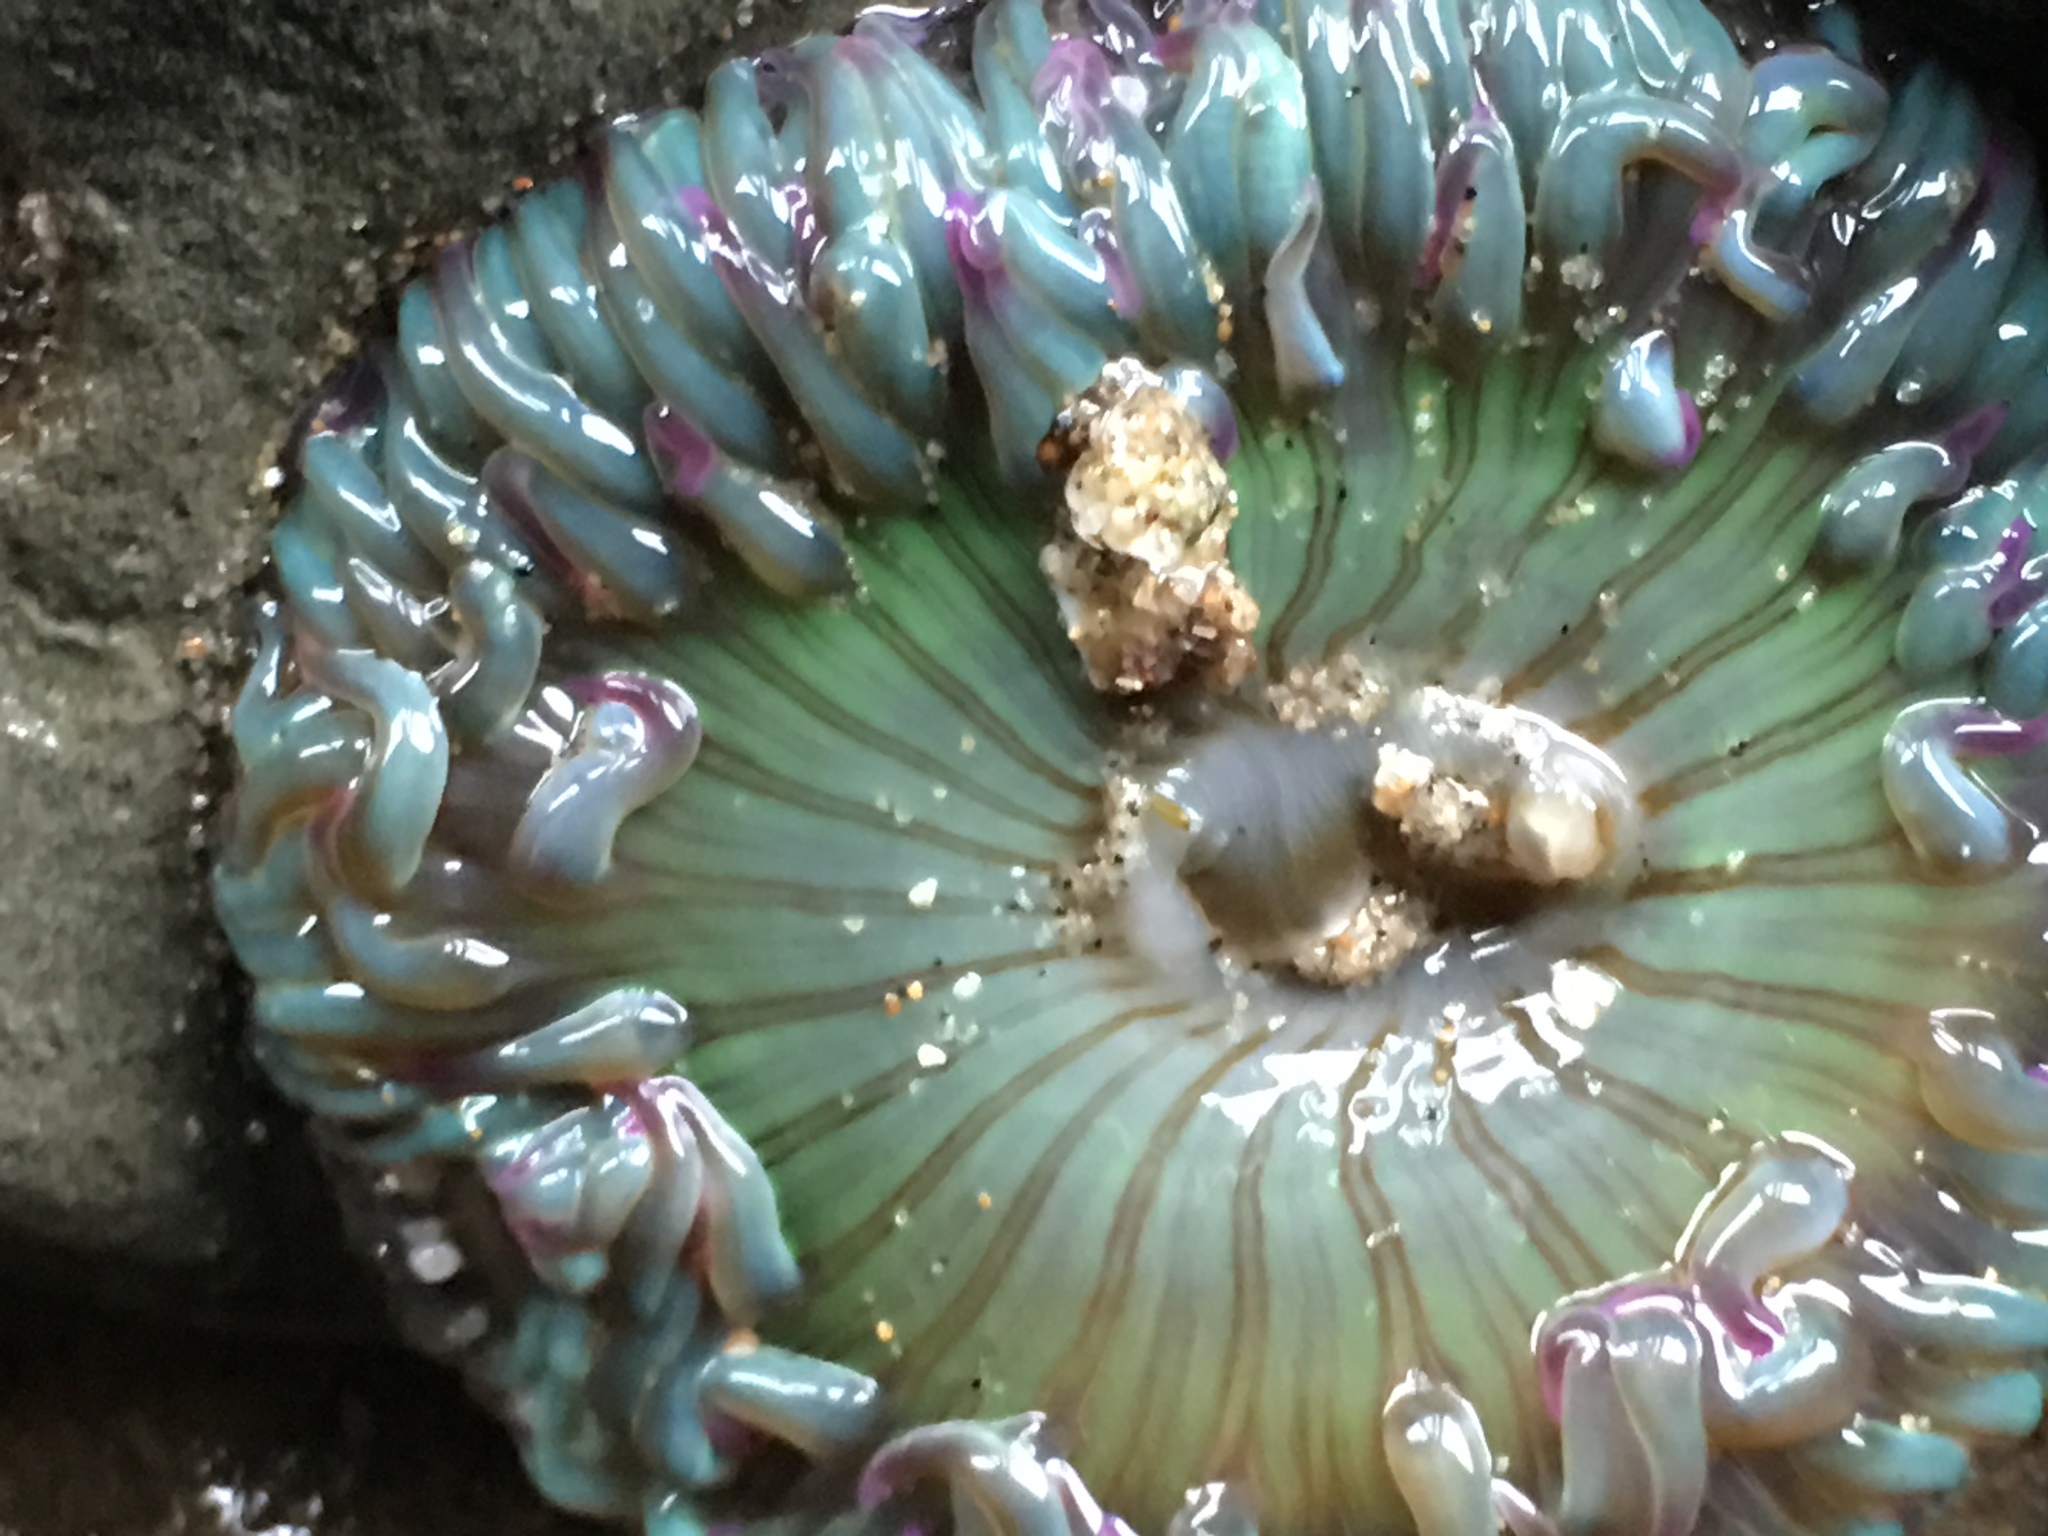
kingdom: Animalia
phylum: Cnidaria
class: Anthozoa
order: Actiniaria
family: Actiniidae
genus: Anthopleura
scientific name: Anthopleura sola
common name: Sun anemone
